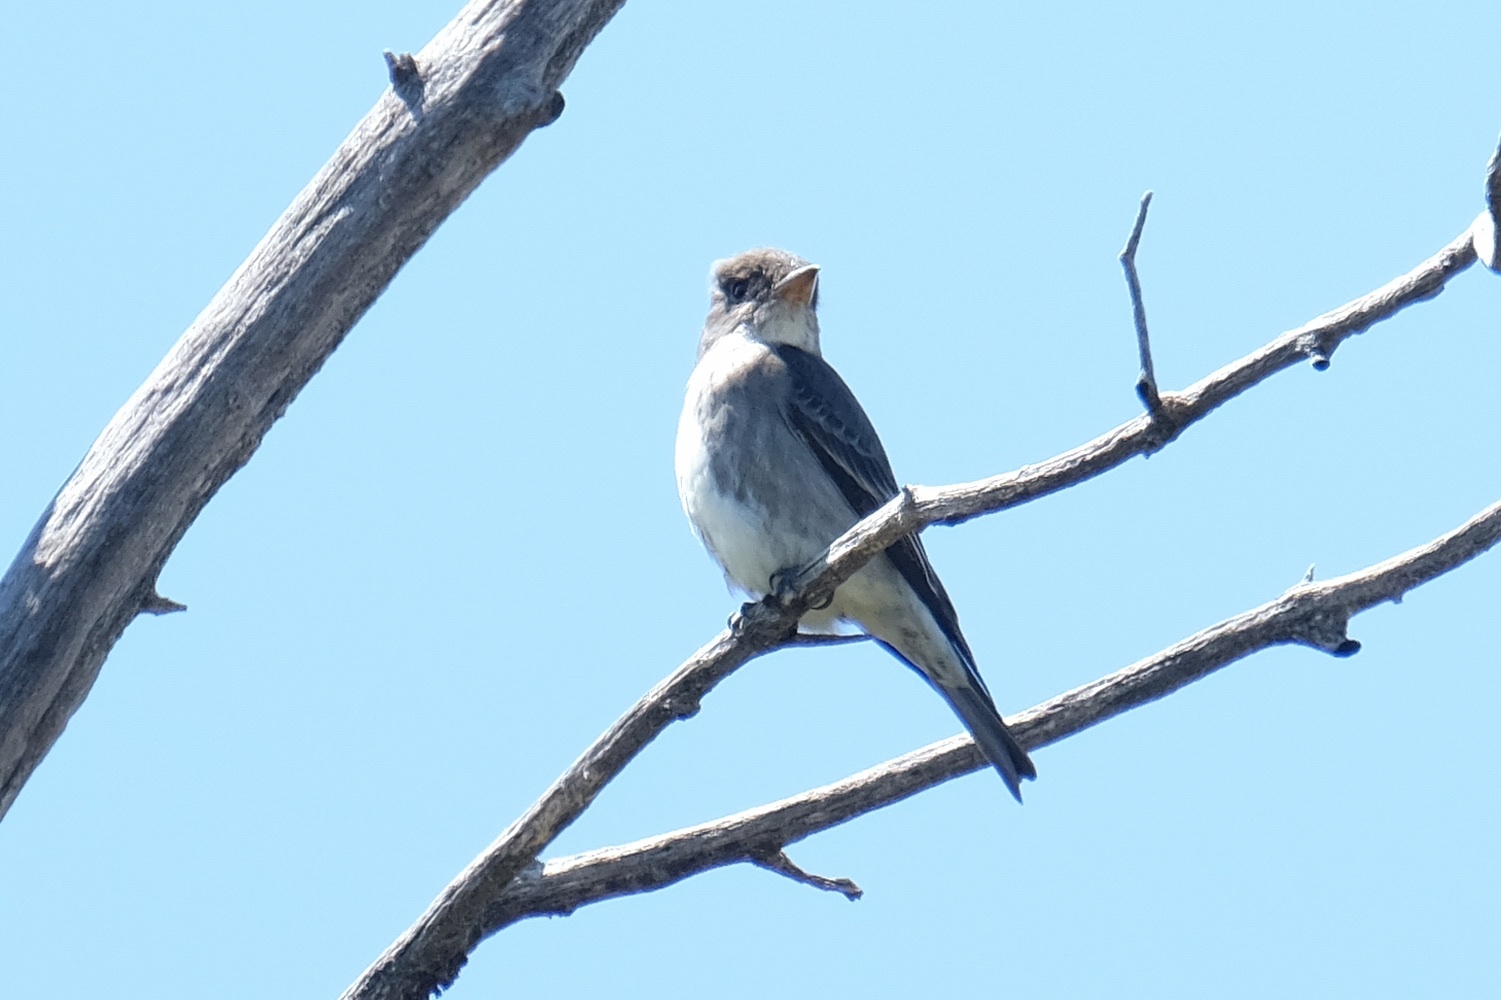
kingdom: Animalia
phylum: Chordata
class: Aves
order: Passeriformes
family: Tyrannidae
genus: Contopus
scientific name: Contopus cooperi
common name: Olive-sided flycatcher
